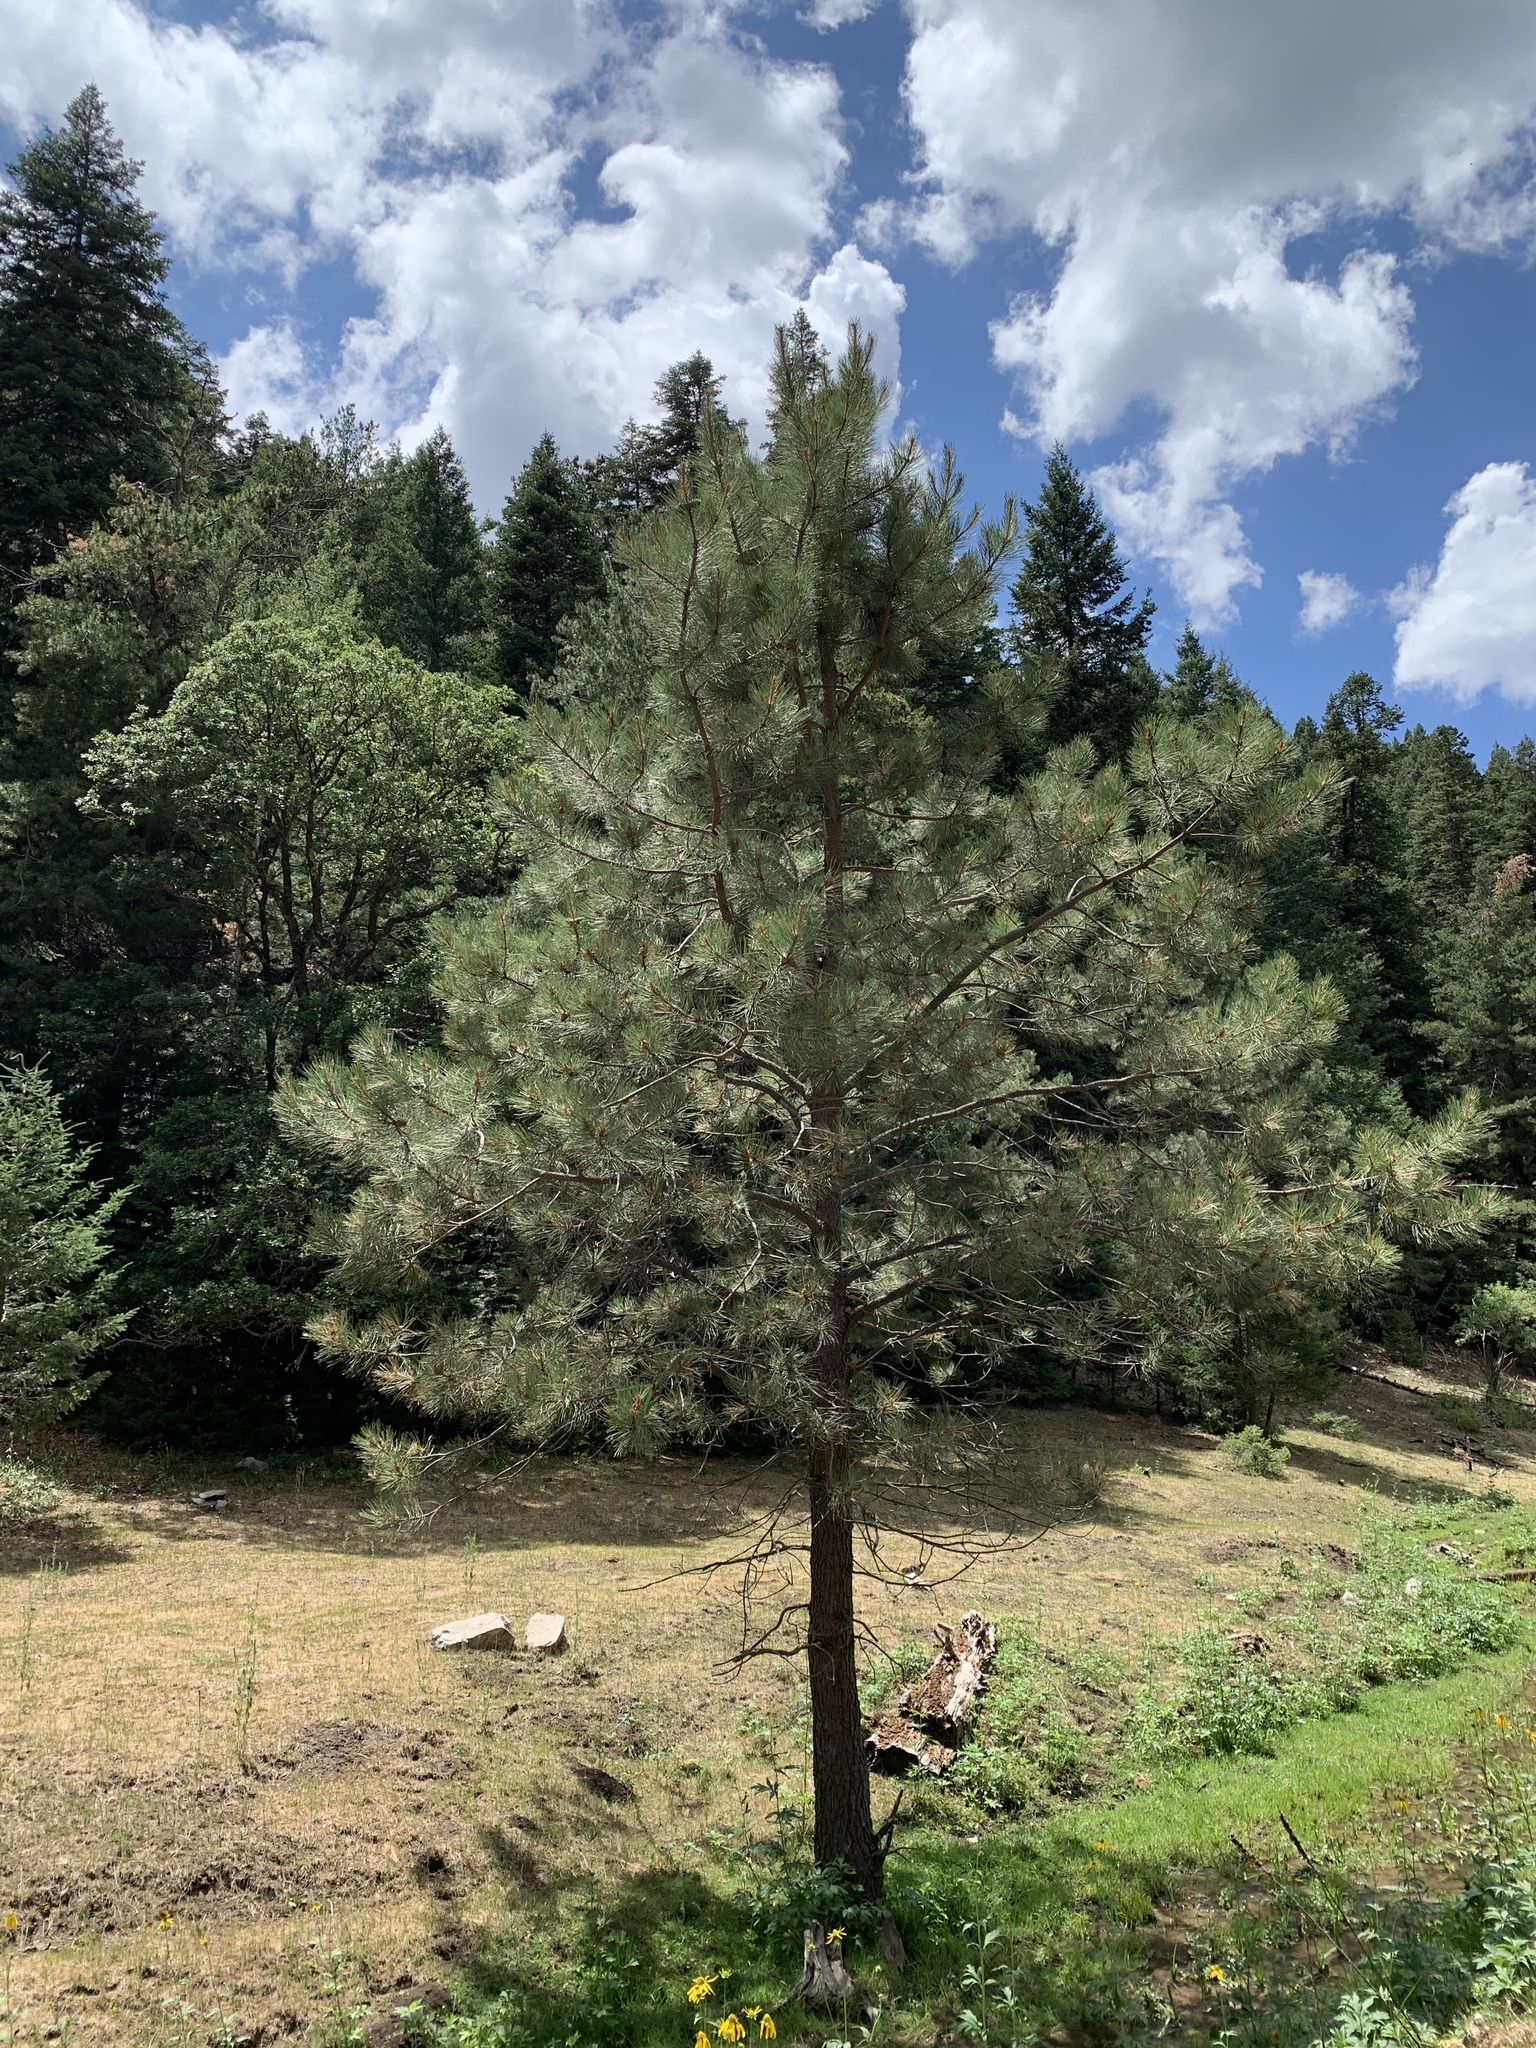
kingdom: Plantae
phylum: Tracheophyta
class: Pinopsida
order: Pinales
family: Pinaceae
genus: Pinus
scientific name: Pinus ponderosa
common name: Western yellow-pine
